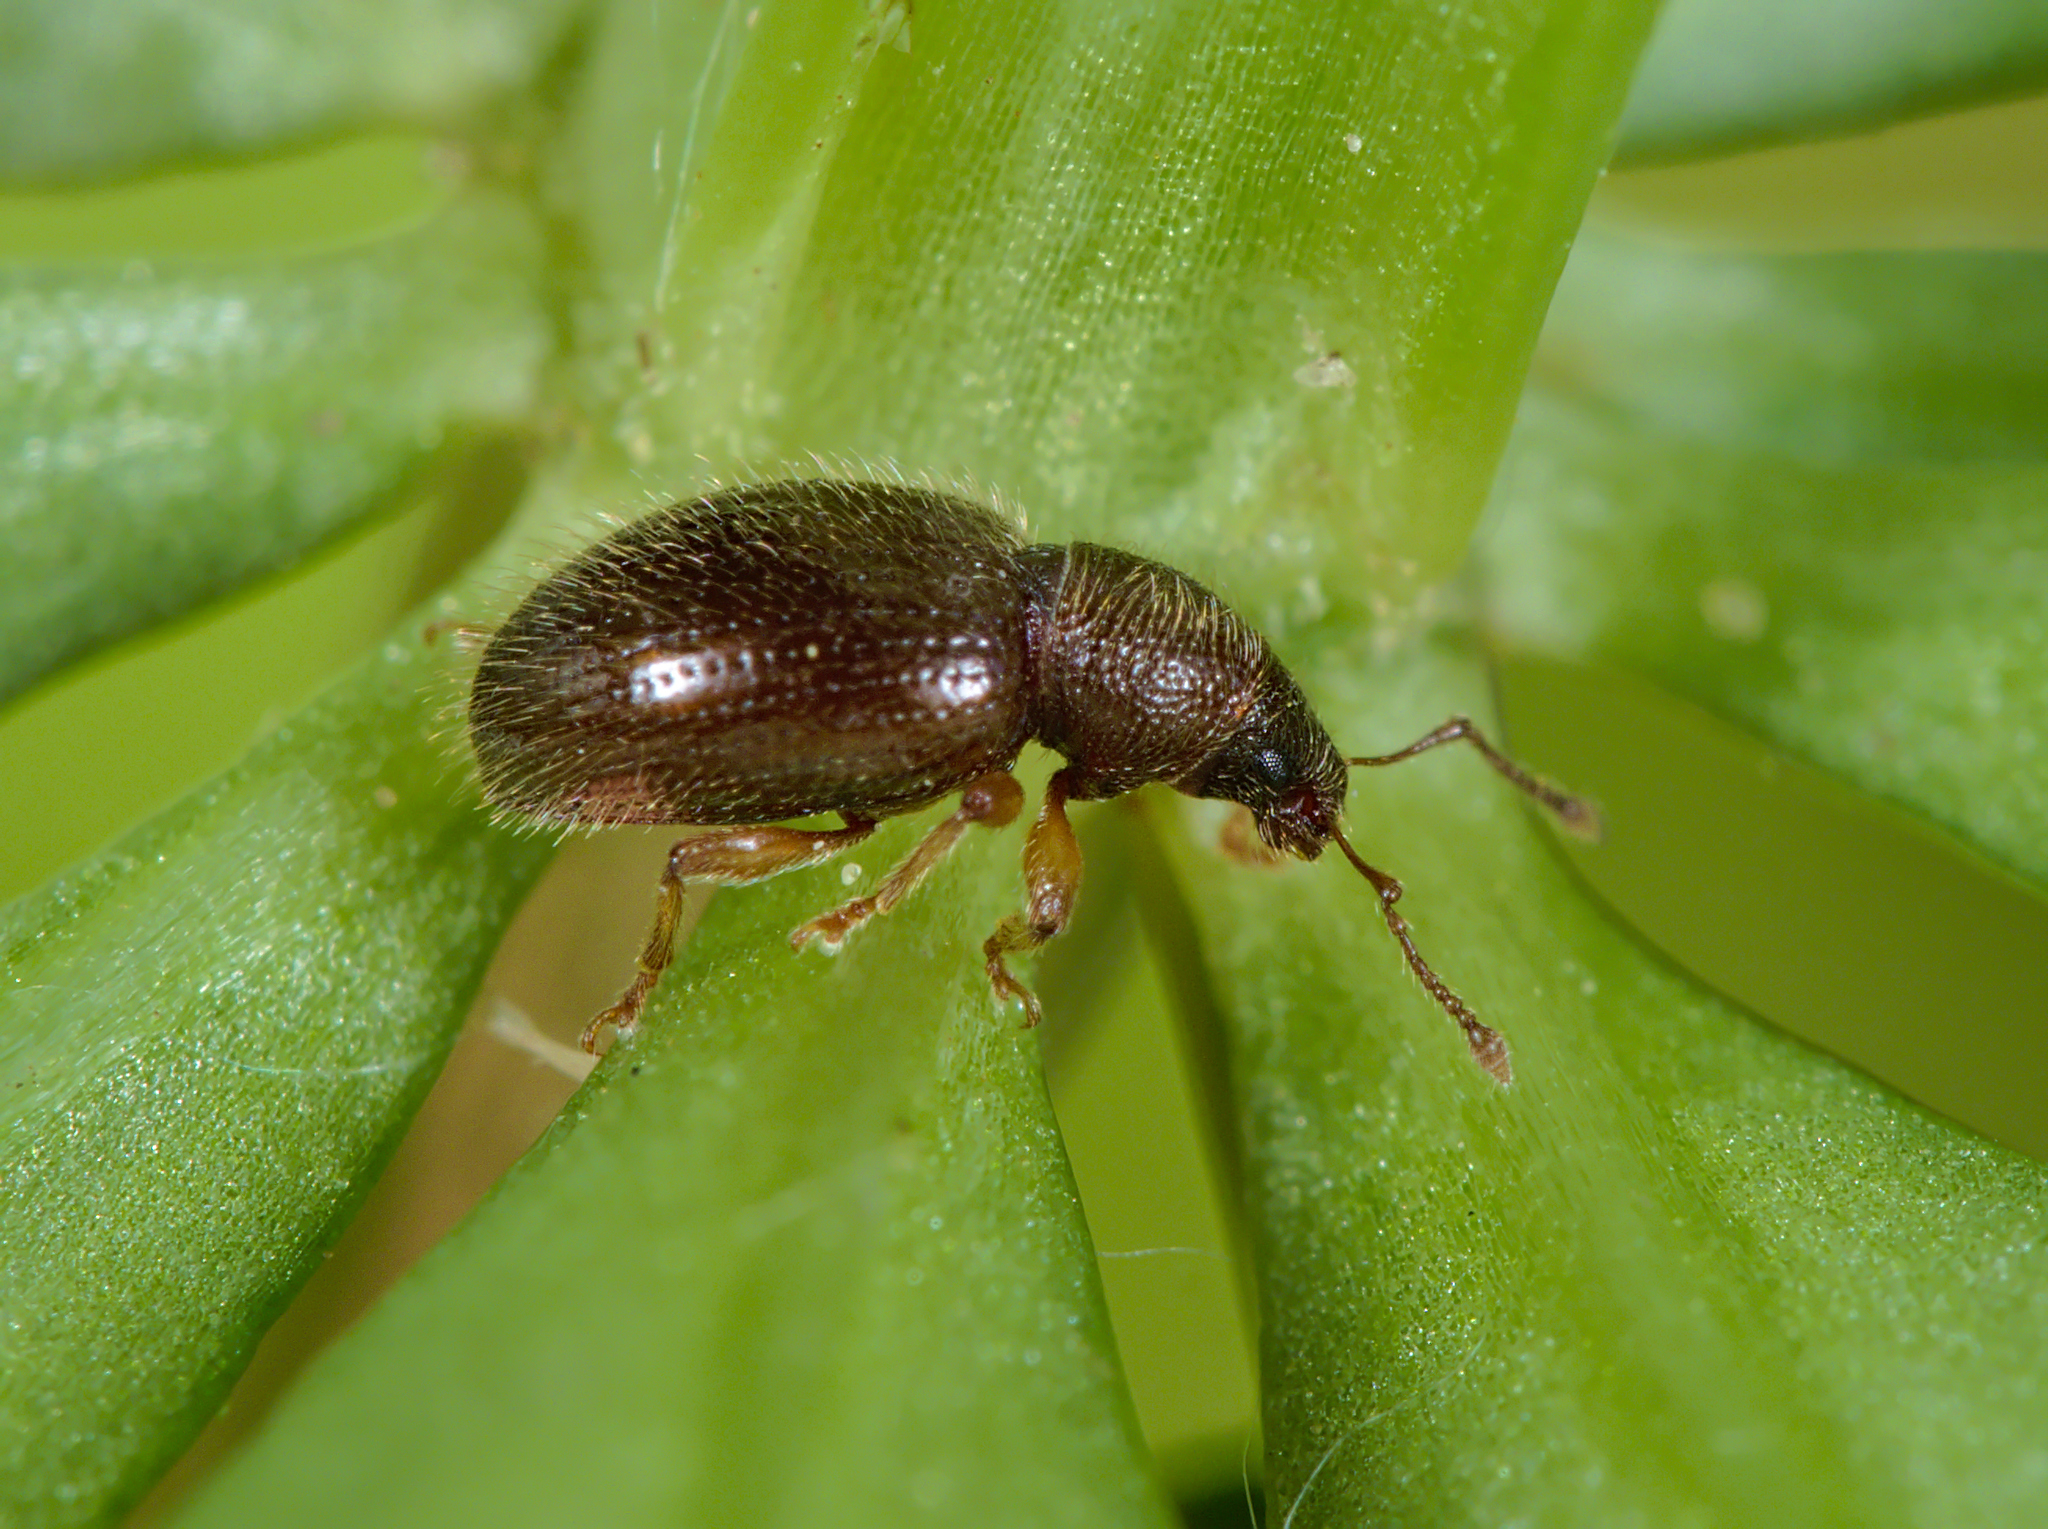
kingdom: Animalia
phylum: Arthropoda
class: Insecta
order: Coleoptera
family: Curculionidae
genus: Exomias
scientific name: Exomias pellucidus
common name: Hairy spider weevil
